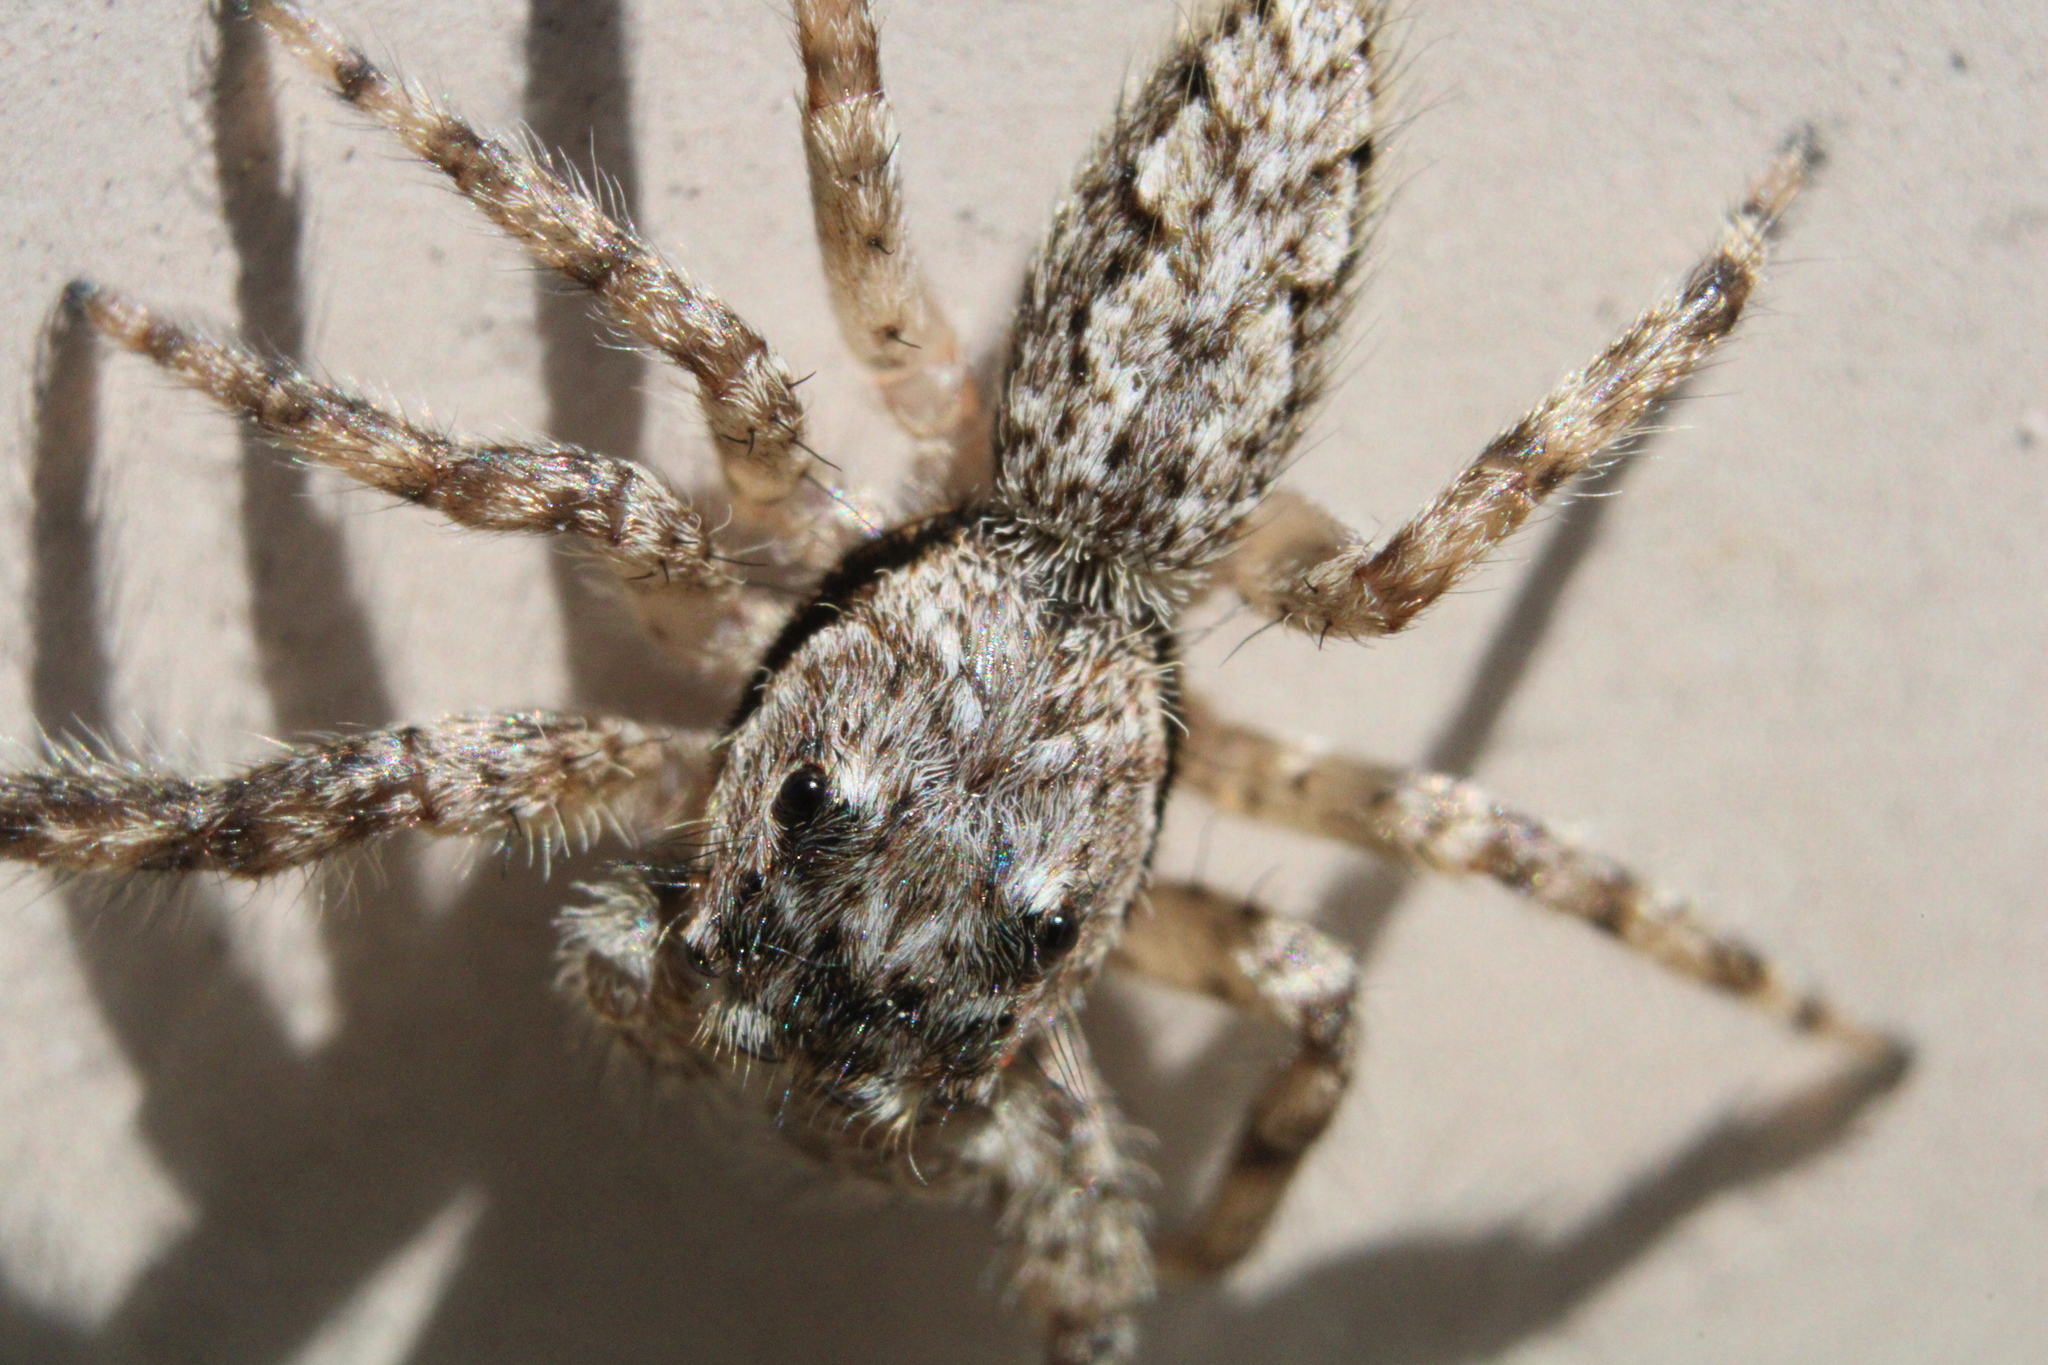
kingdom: Animalia
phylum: Arthropoda
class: Arachnida
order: Araneae
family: Salticidae
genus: Platycryptus
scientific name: Platycryptus undatus
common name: Tan jumping spider
